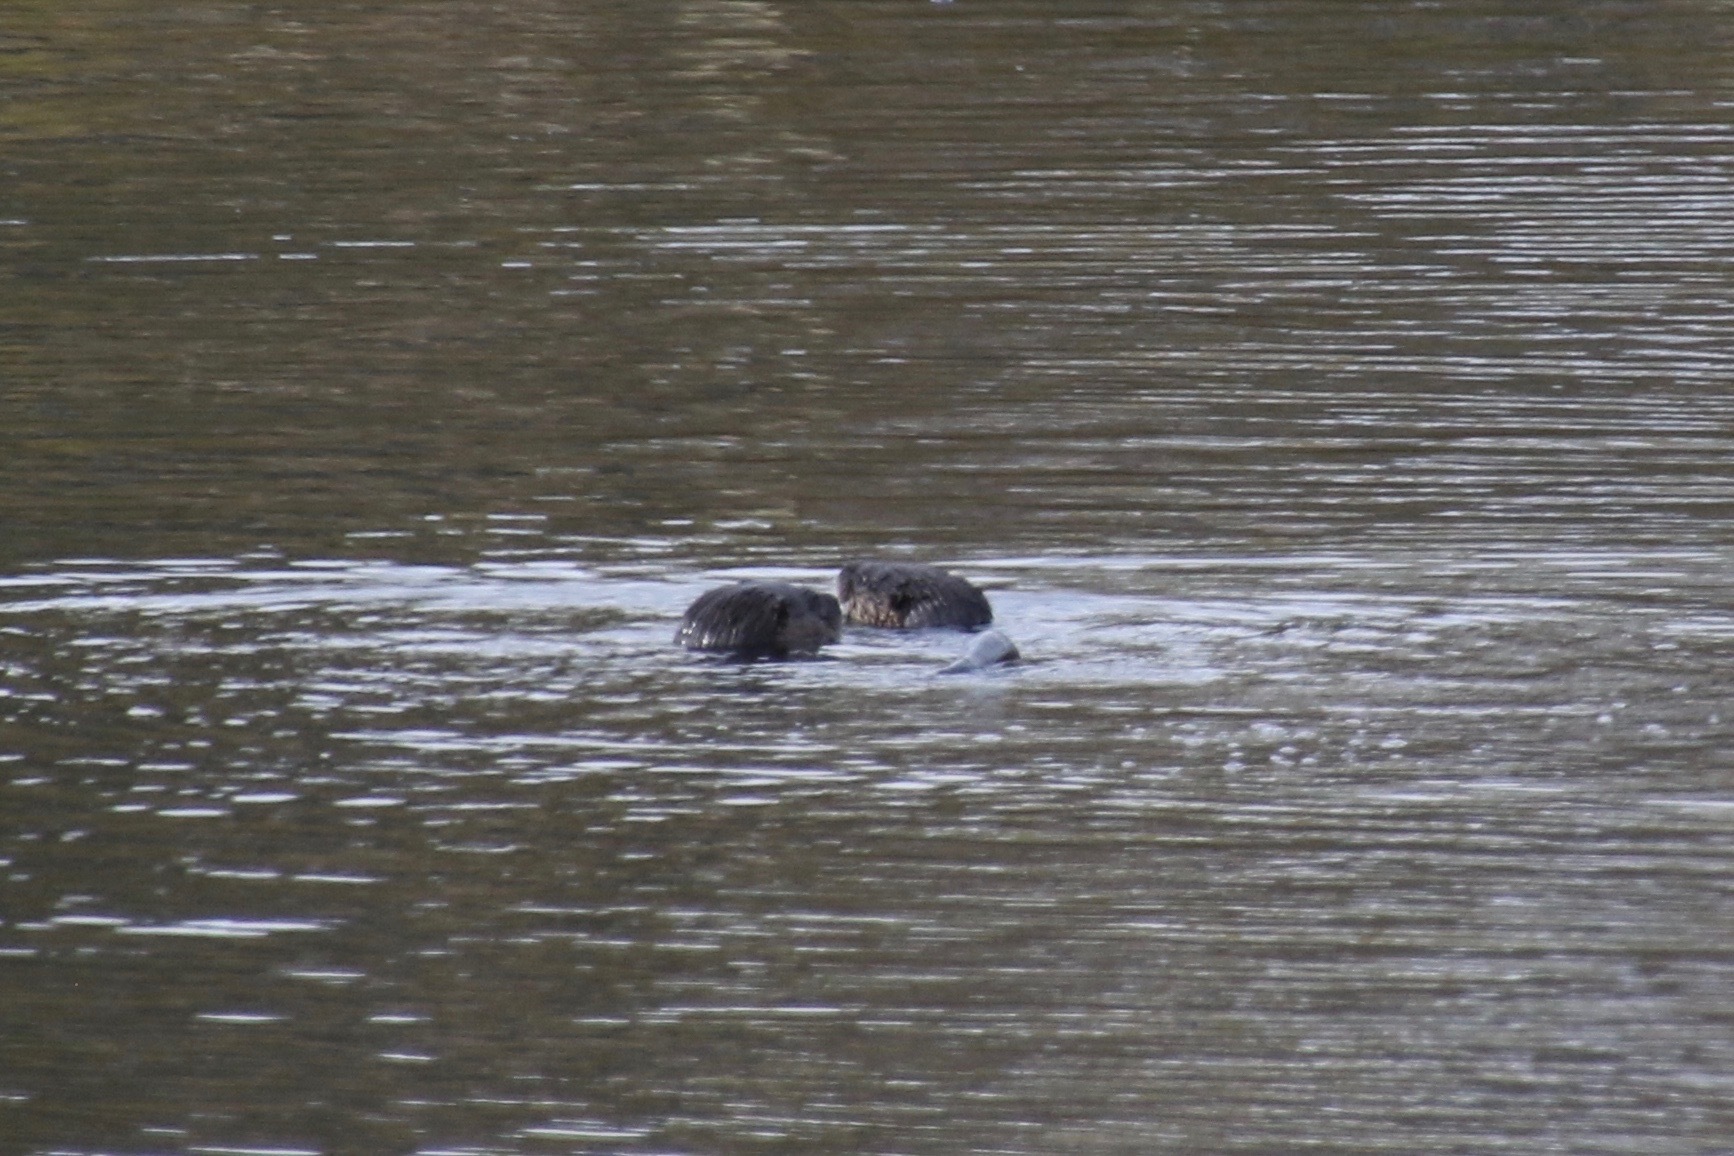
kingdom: Animalia
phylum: Chordata
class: Mammalia
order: Carnivora
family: Mustelidae
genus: Lontra
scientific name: Lontra canadensis
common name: North american river otter
